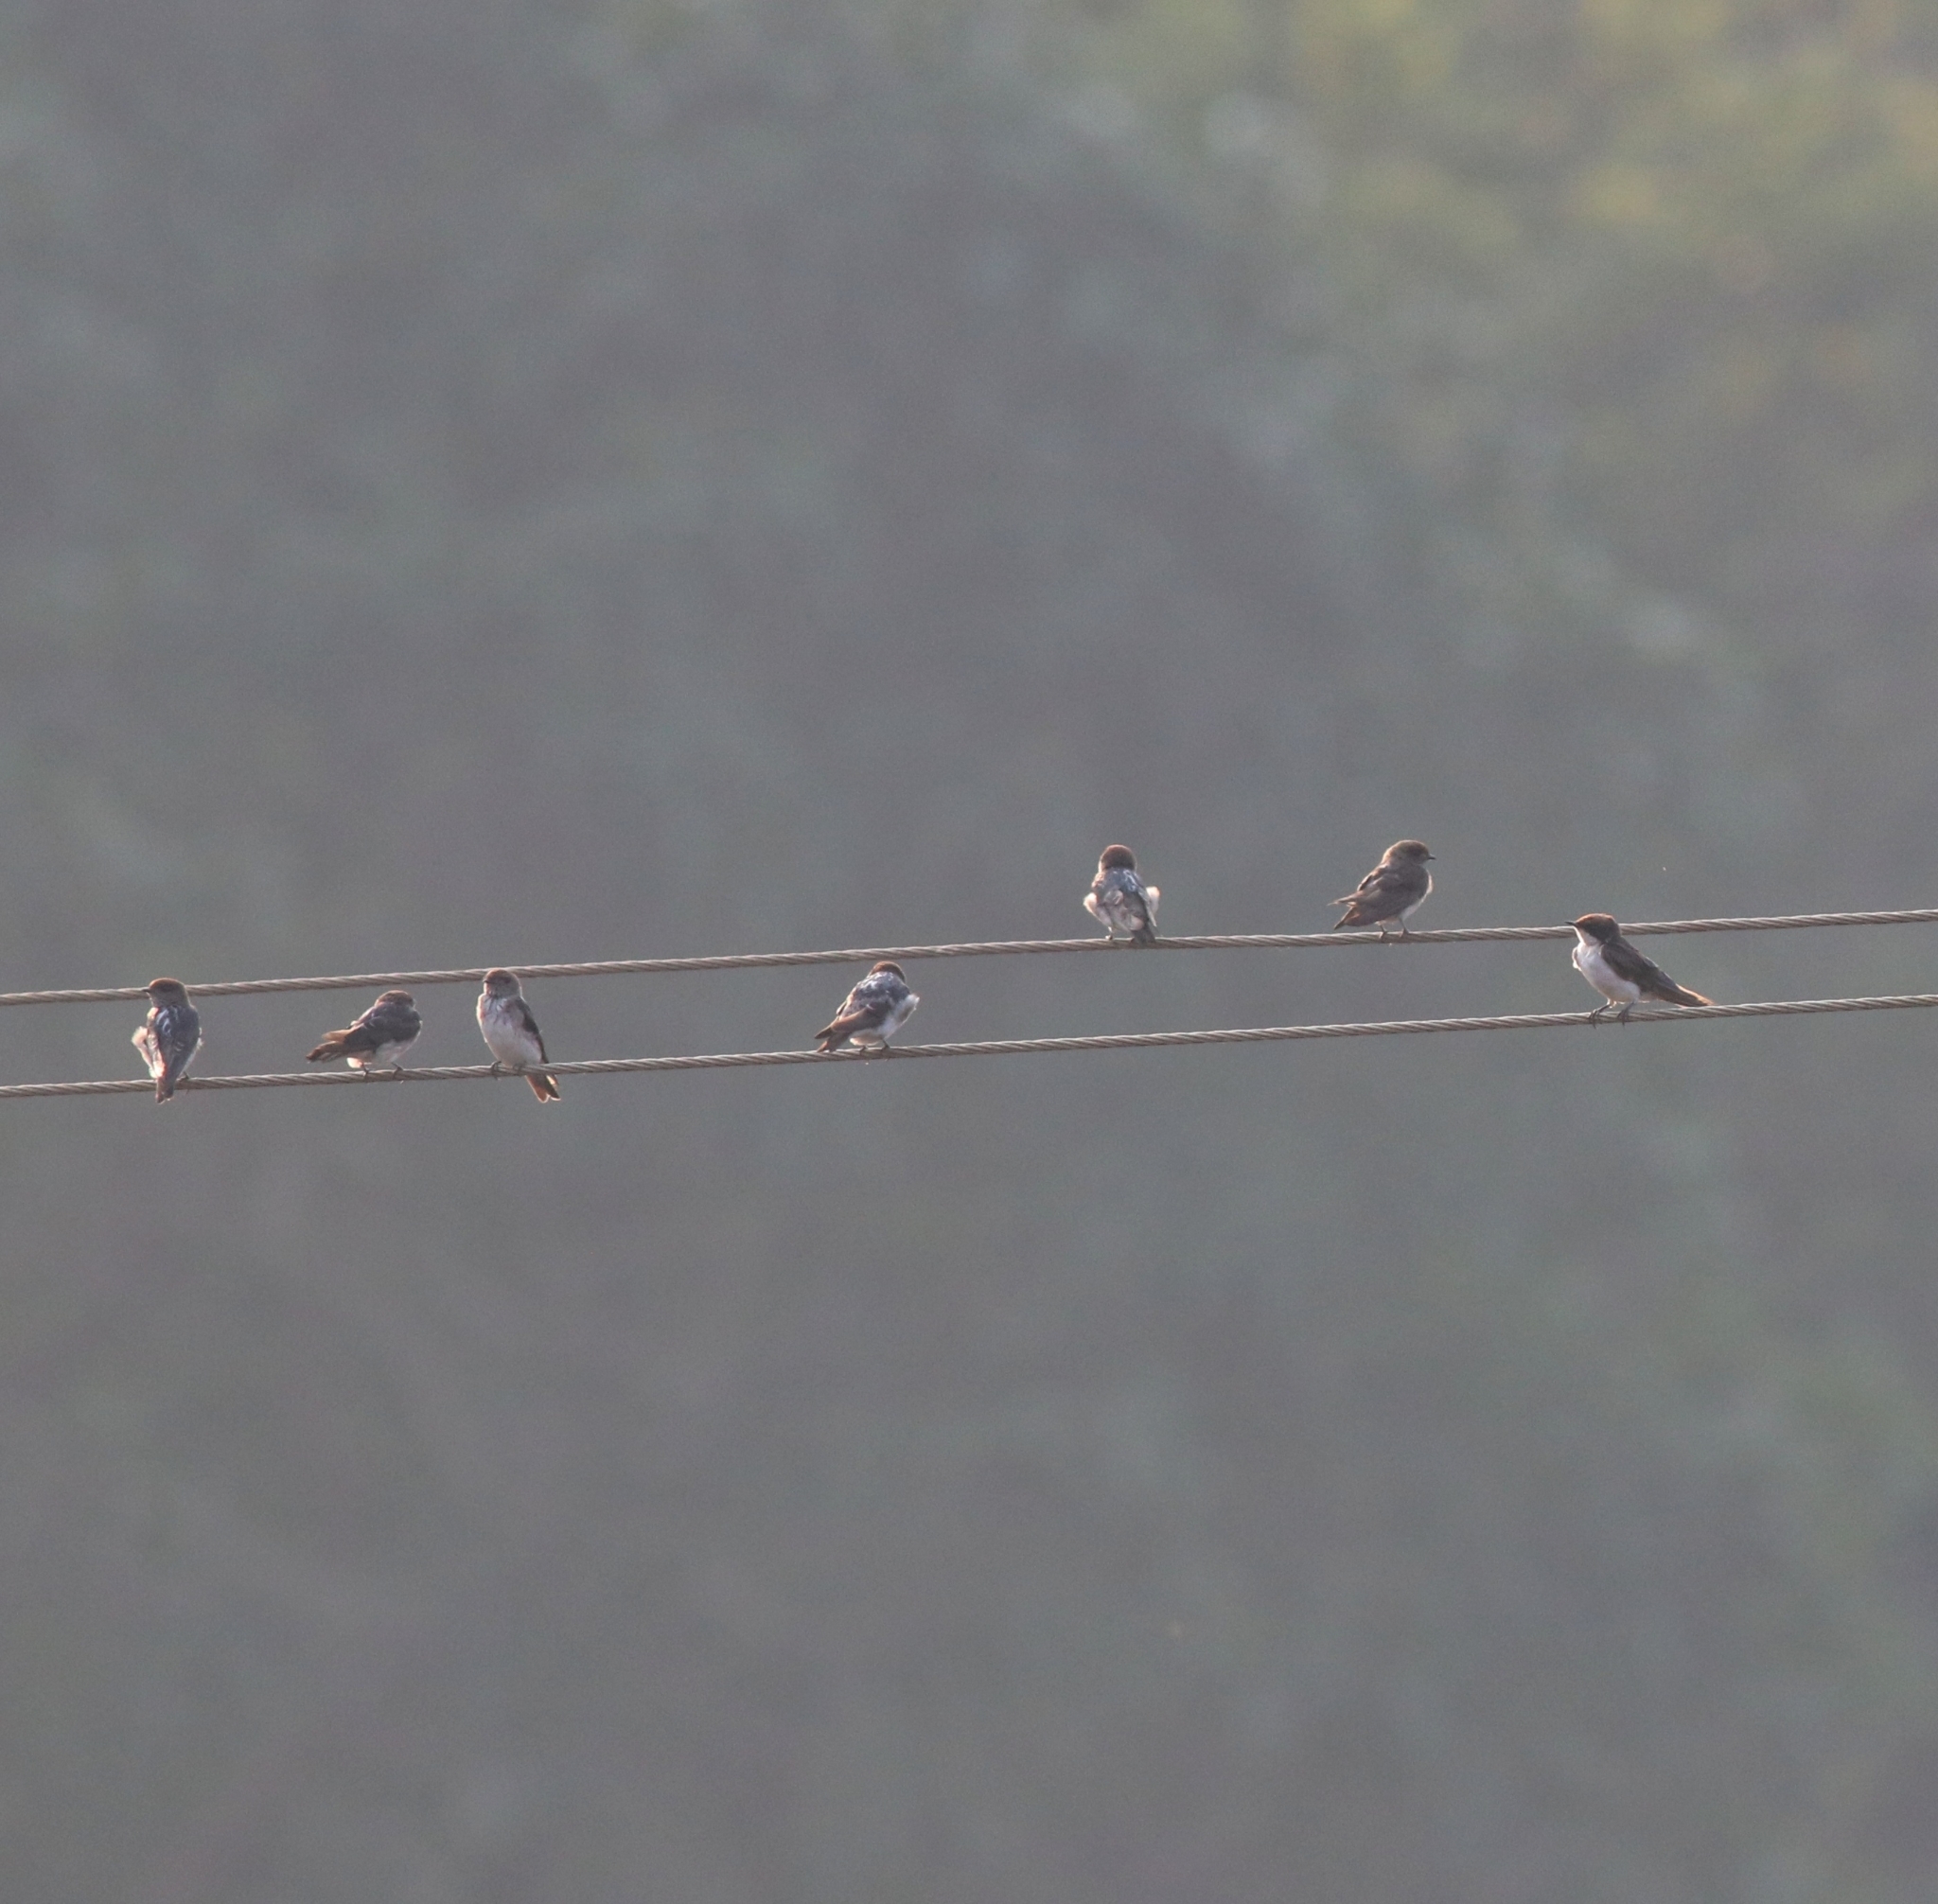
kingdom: Animalia
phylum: Chordata
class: Aves
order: Passeriformes
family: Hirundinidae
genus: Hirundo
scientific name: Hirundo smithii
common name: Wire-tailed swallow
